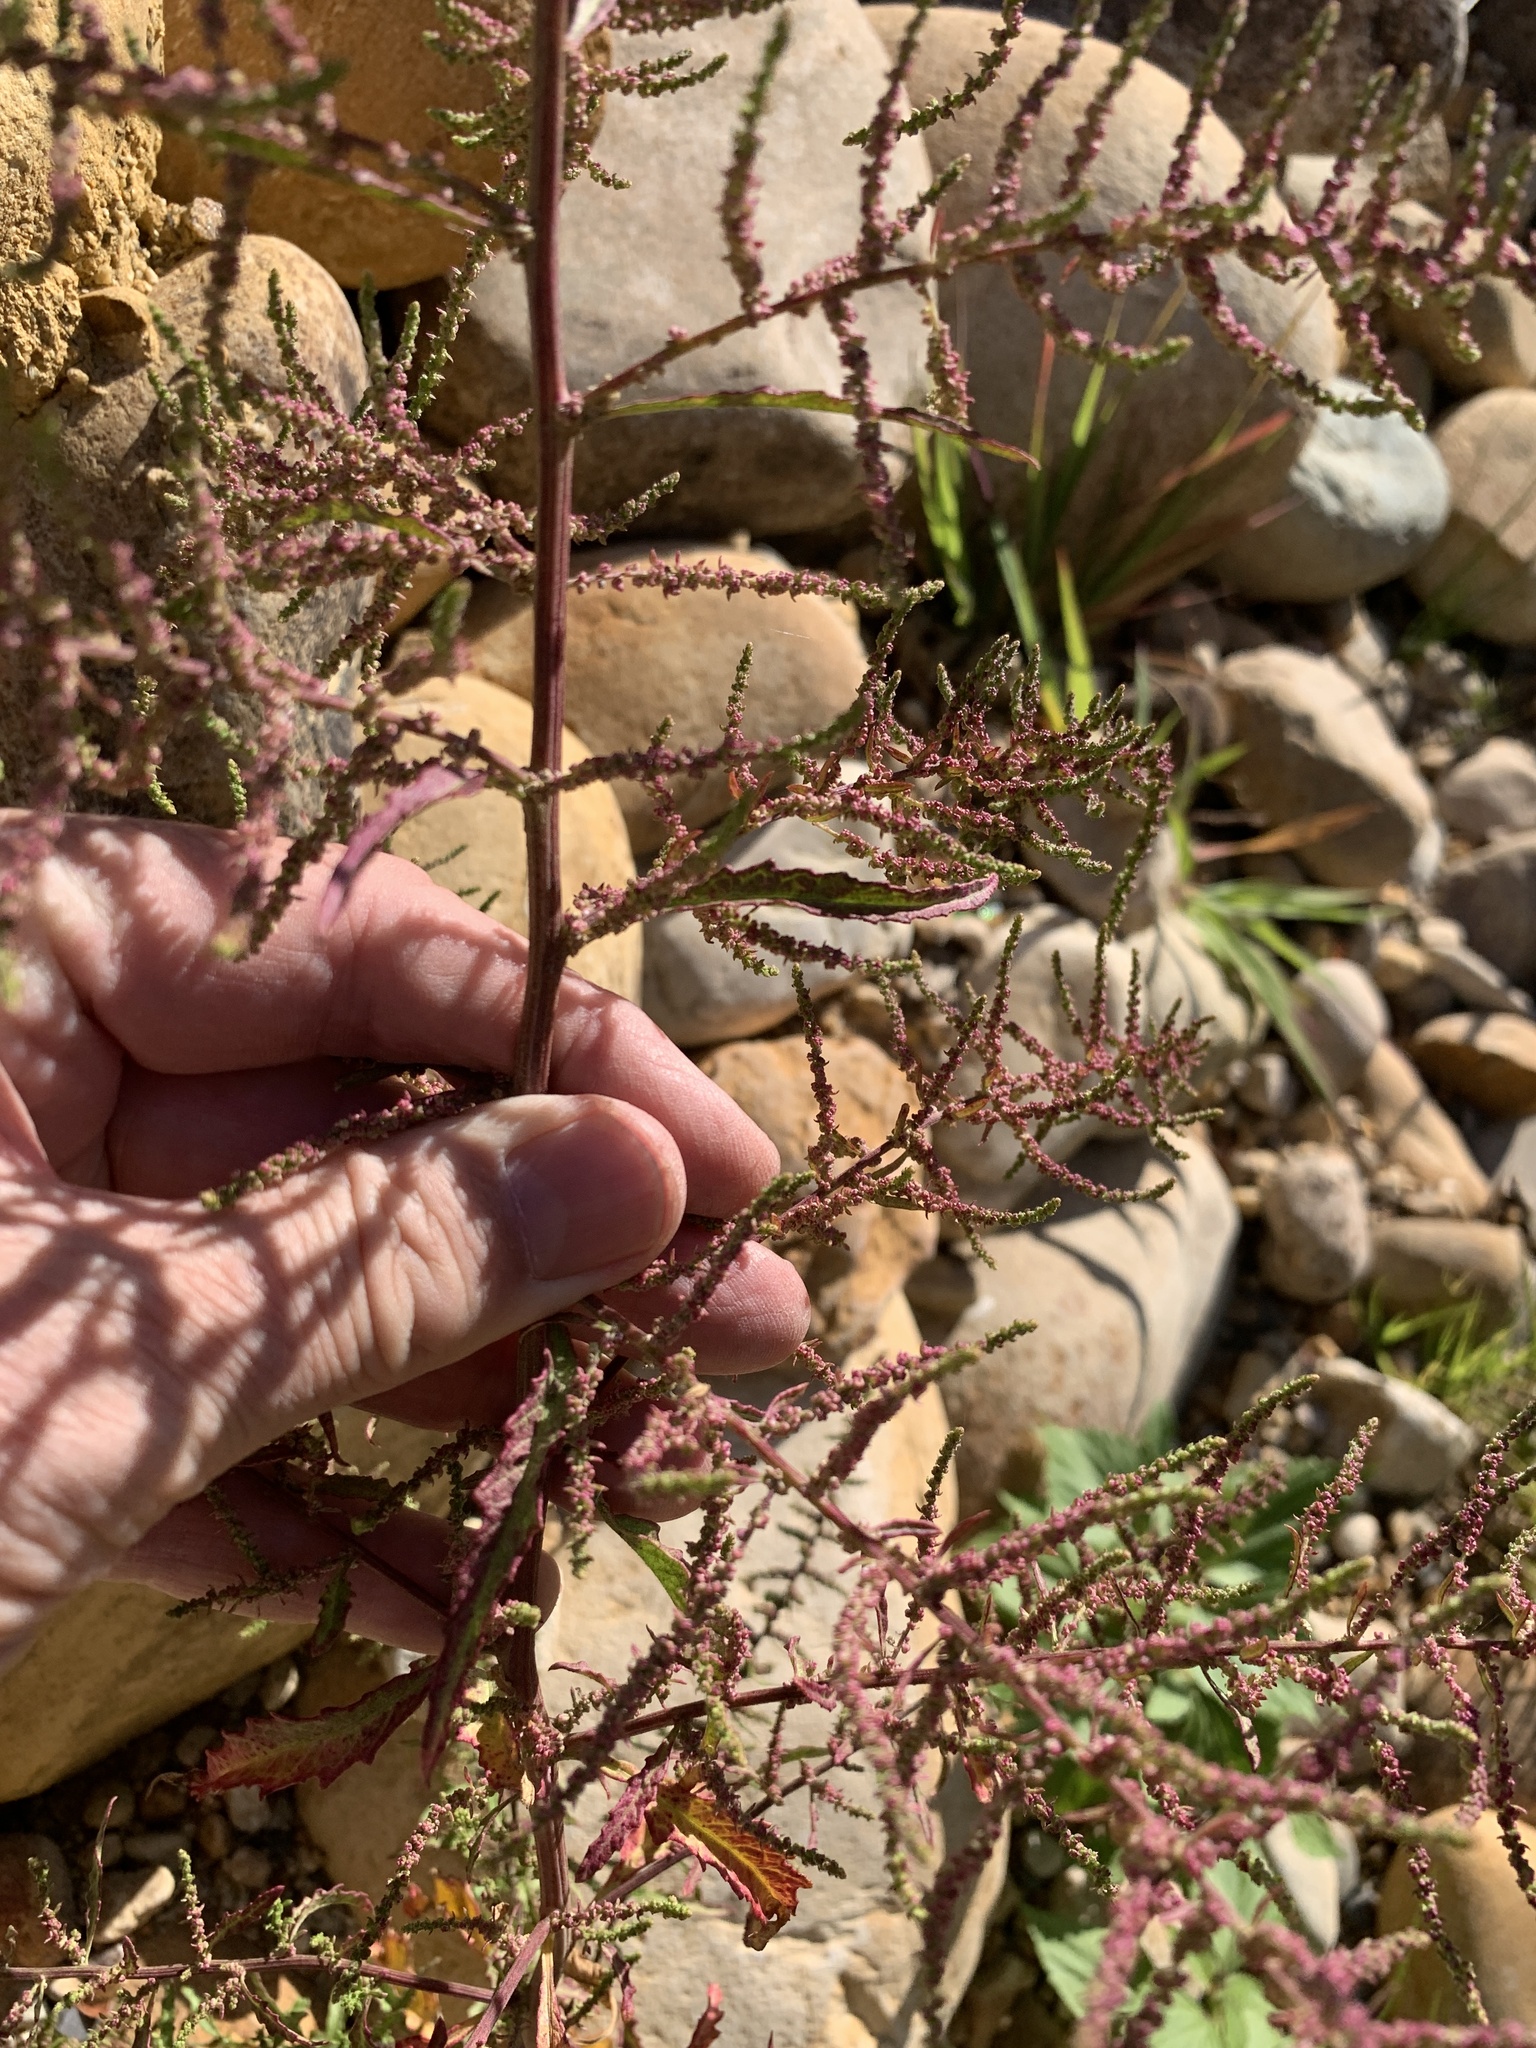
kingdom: Plantae
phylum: Tracheophyta
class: Magnoliopsida
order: Caryophyllales
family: Amaranthaceae
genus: Dysphania
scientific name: Dysphania ambrosioides
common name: Wormseed
